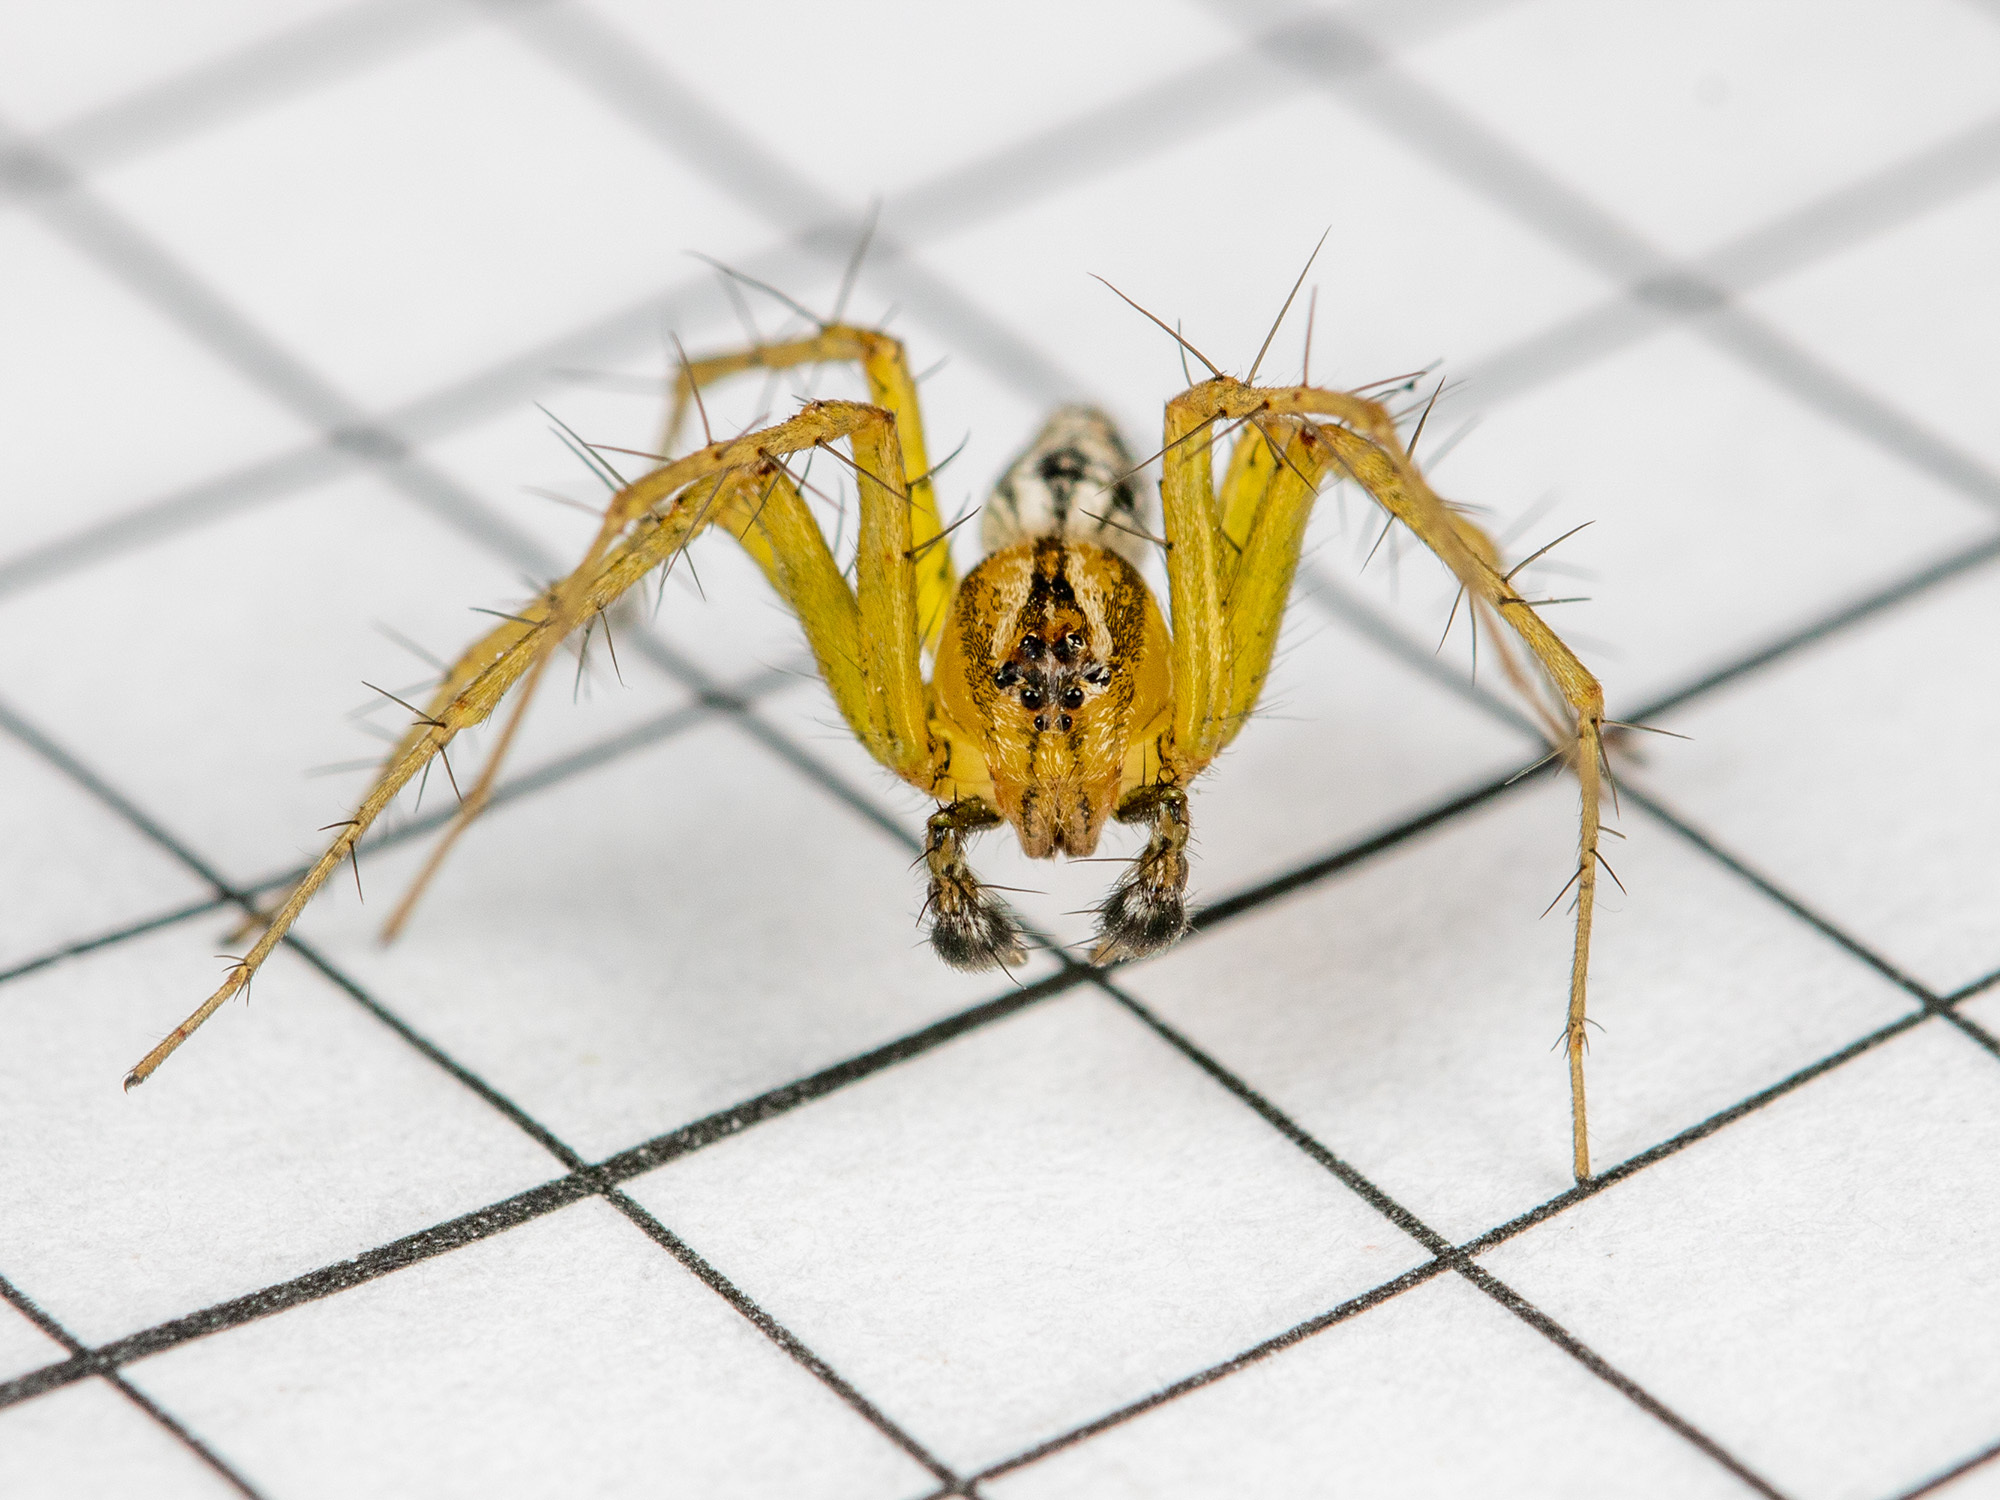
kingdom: Animalia
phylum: Arthropoda
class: Arachnida
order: Araneae
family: Oxyopidae
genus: Oxyopes
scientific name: Oxyopes lineatus
